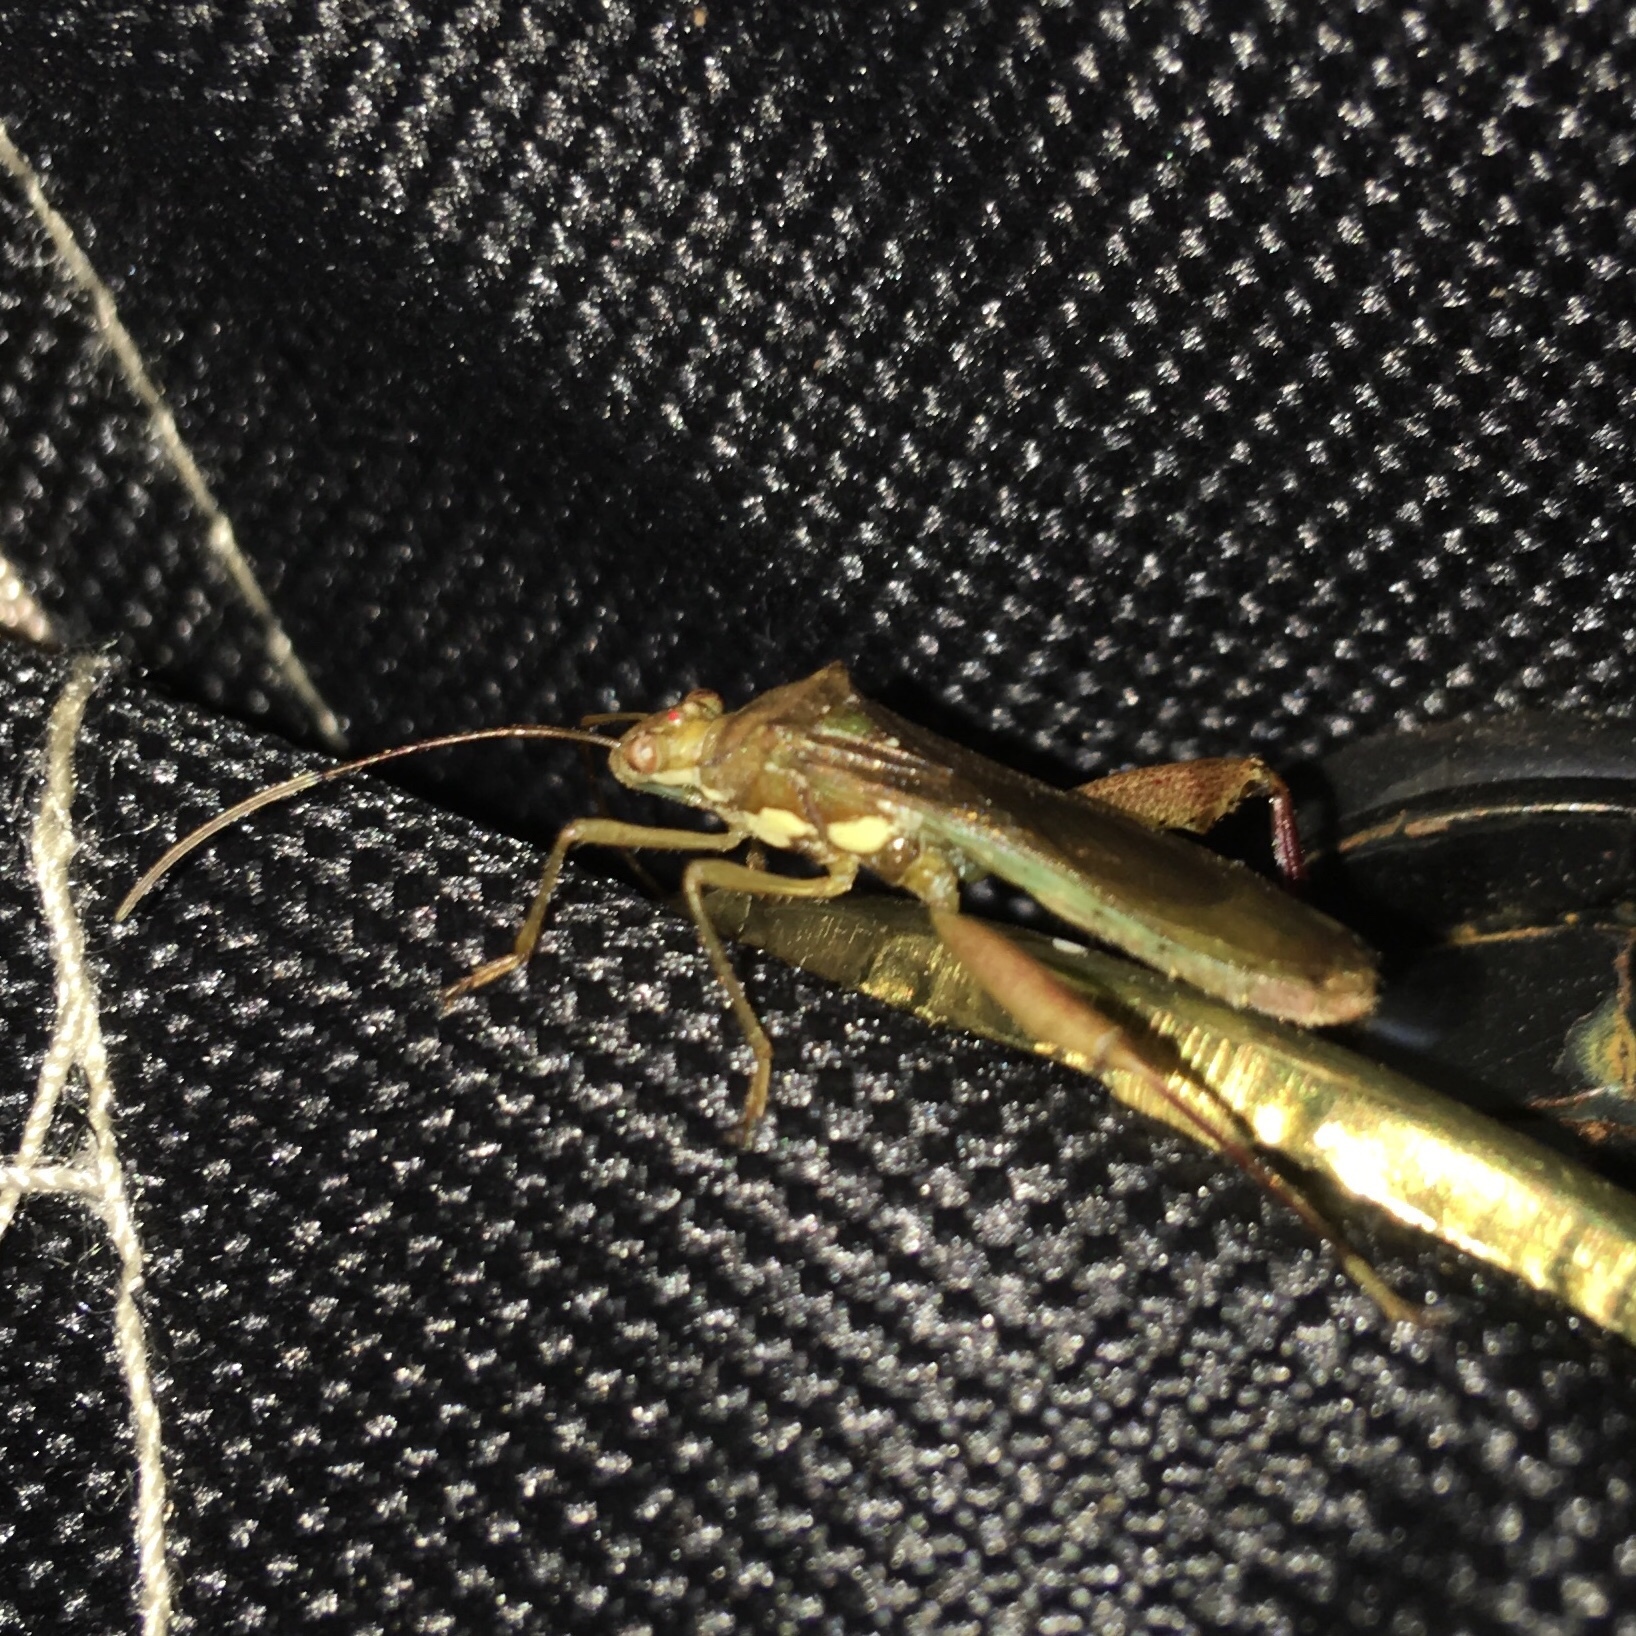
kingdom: Animalia
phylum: Arthropoda
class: Insecta
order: Hemiptera
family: Alydidae
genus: Hyalymenus
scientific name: Hyalymenus tarsatus
